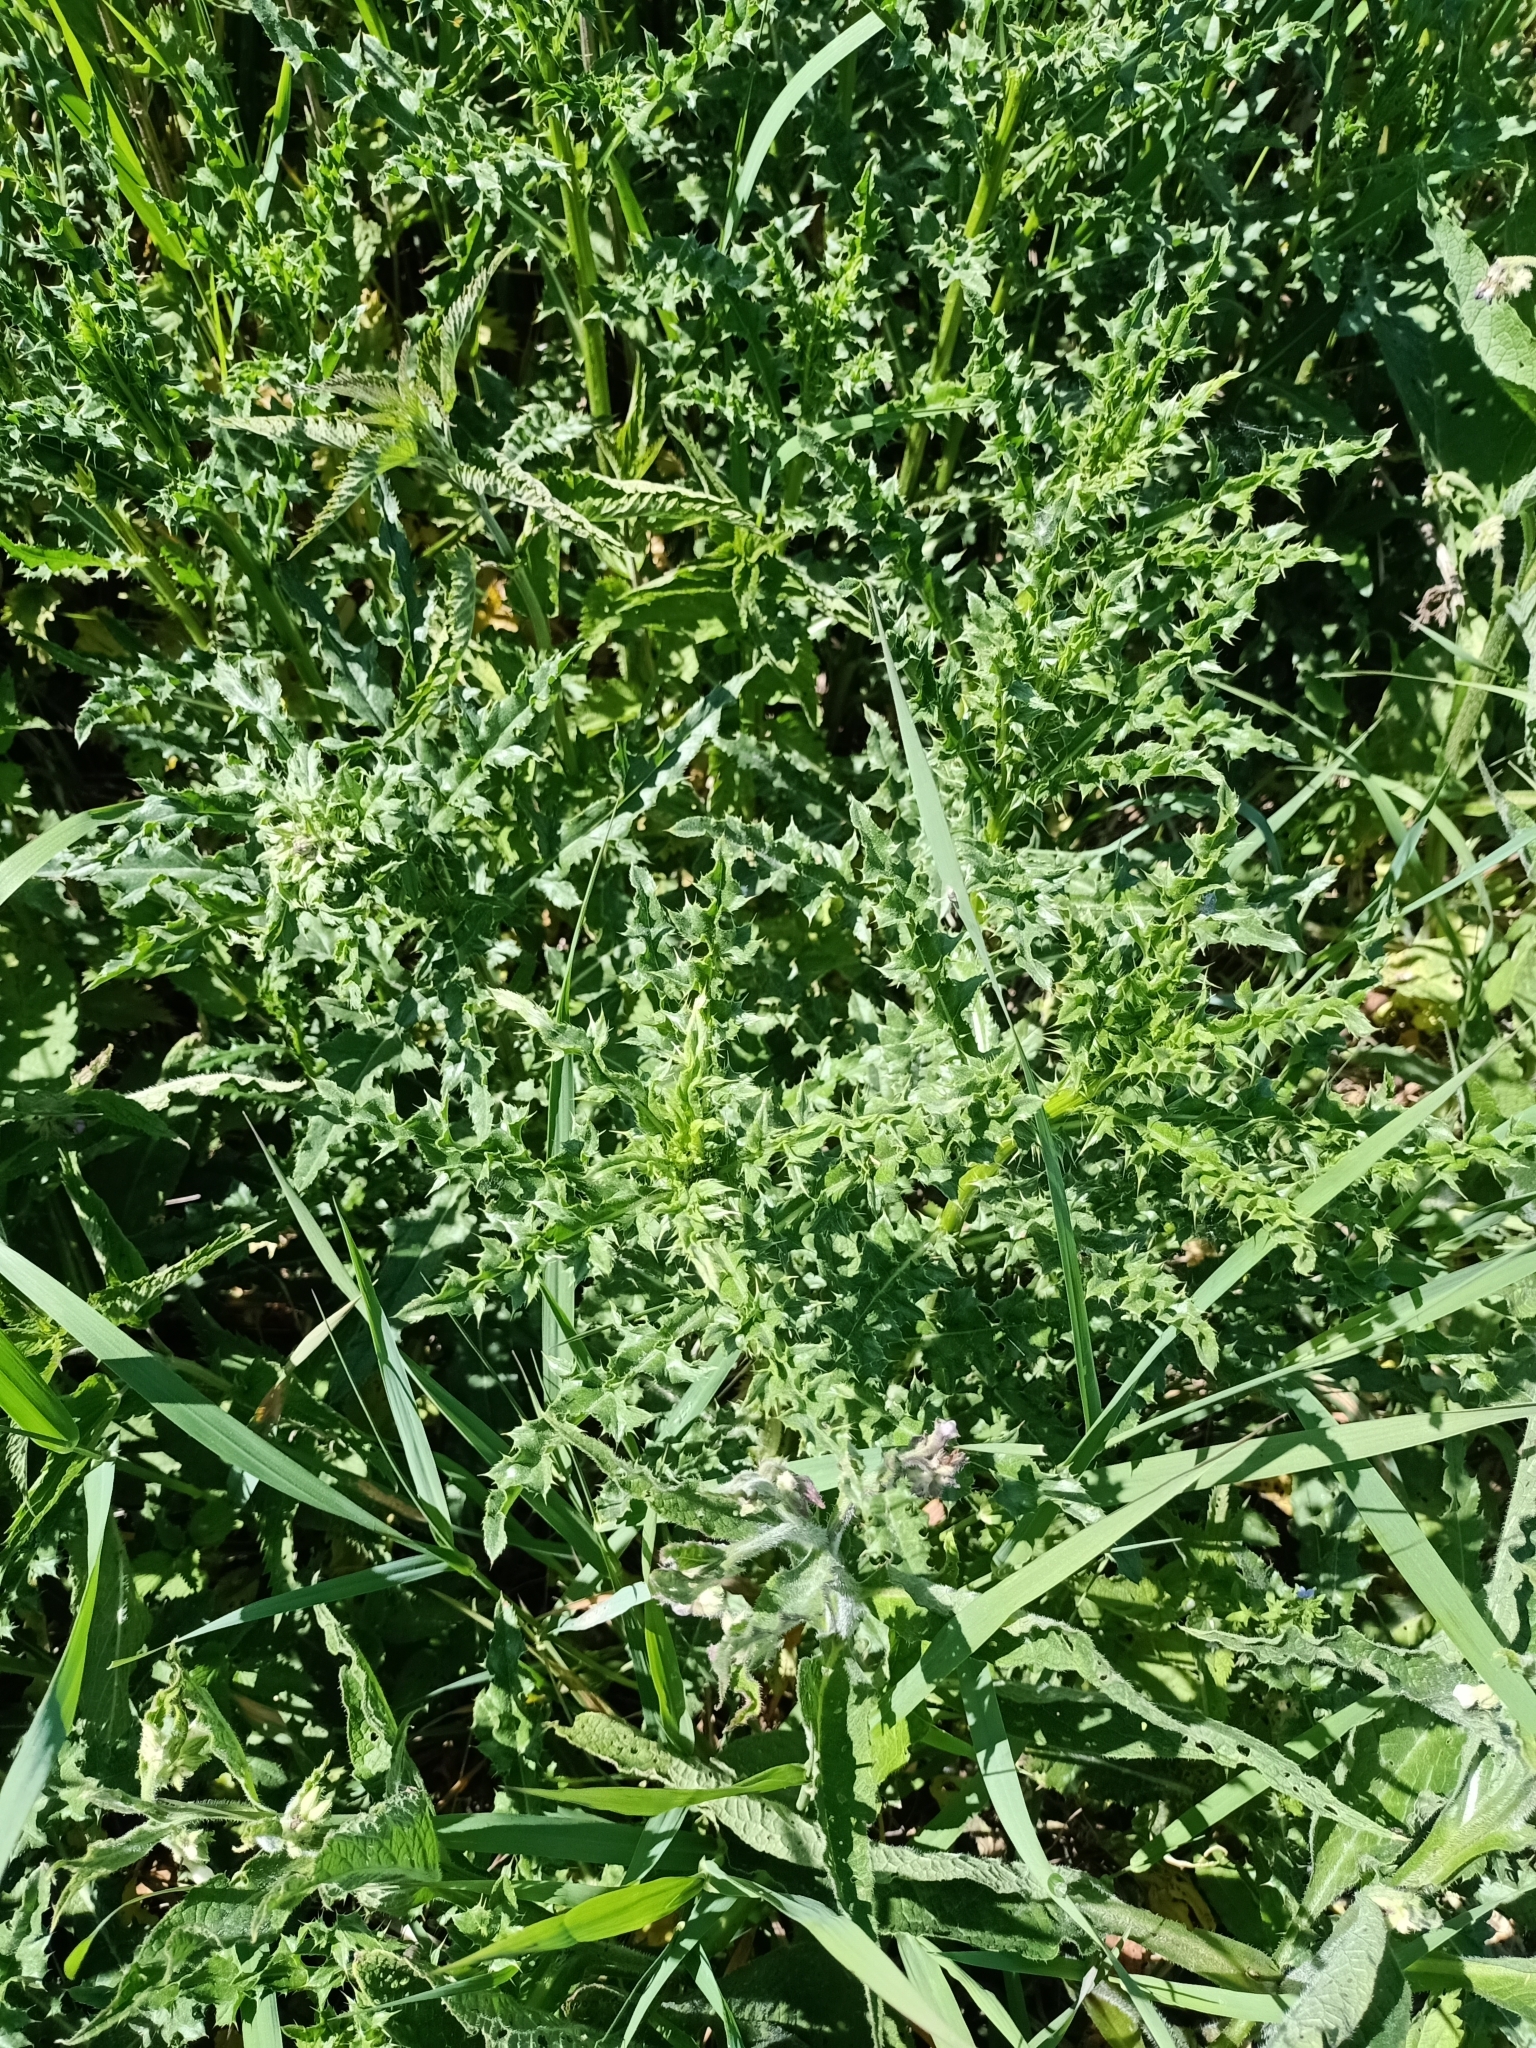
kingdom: Plantae
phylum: Tracheophyta
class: Magnoliopsida
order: Asterales
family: Asteraceae
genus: Cirsium
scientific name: Cirsium arvense
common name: Creeping thistle
